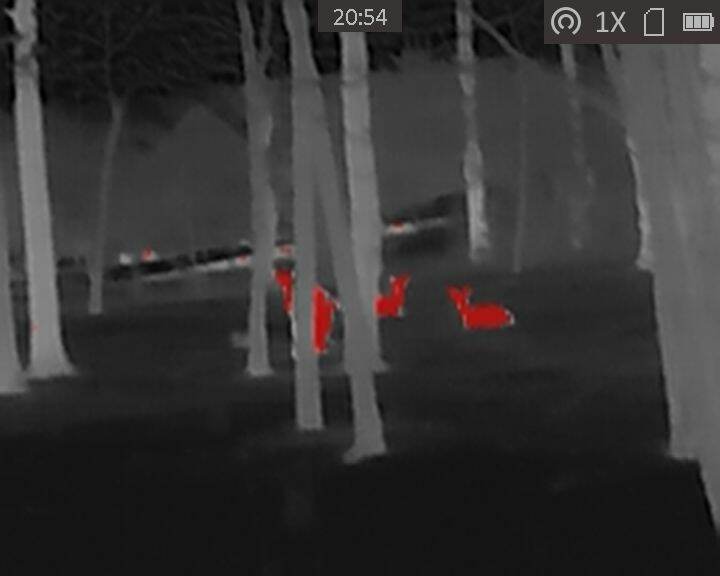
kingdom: Animalia
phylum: Chordata
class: Mammalia
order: Artiodactyla
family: Cervidae
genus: Odocoileus
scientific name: Odocoileus virginianus
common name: White-tailed deer
